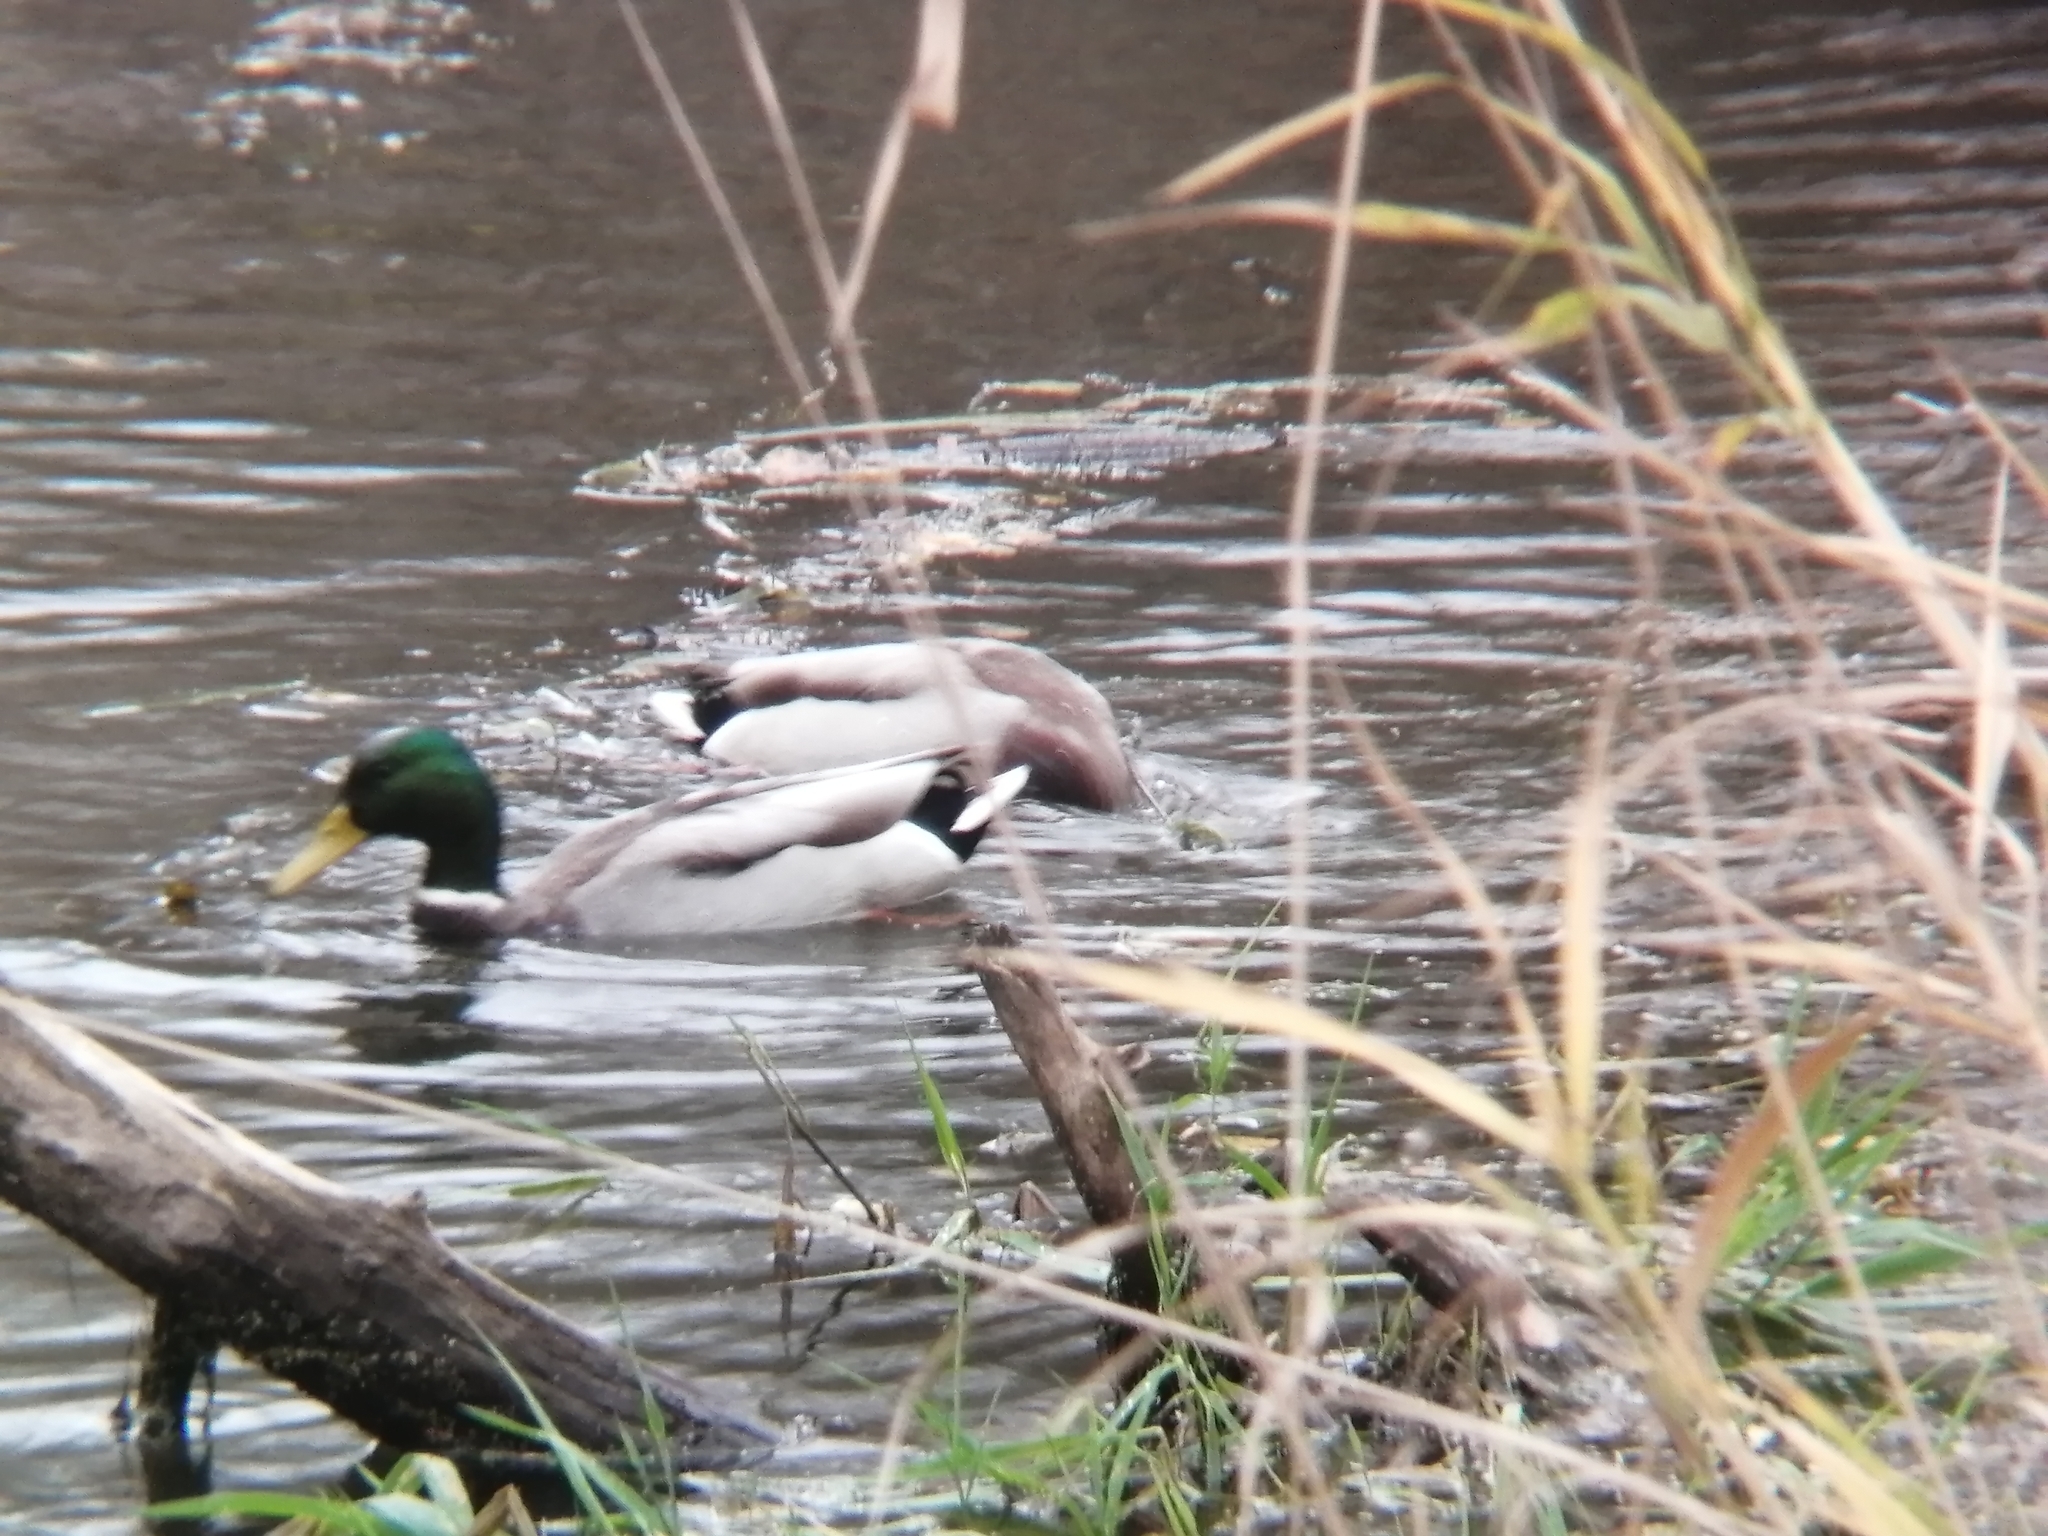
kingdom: Animalia
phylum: Chordata
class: Aves
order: Anseriformes
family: Anatidae
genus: Anas
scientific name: Anas platyrhynchos
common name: Mallard
